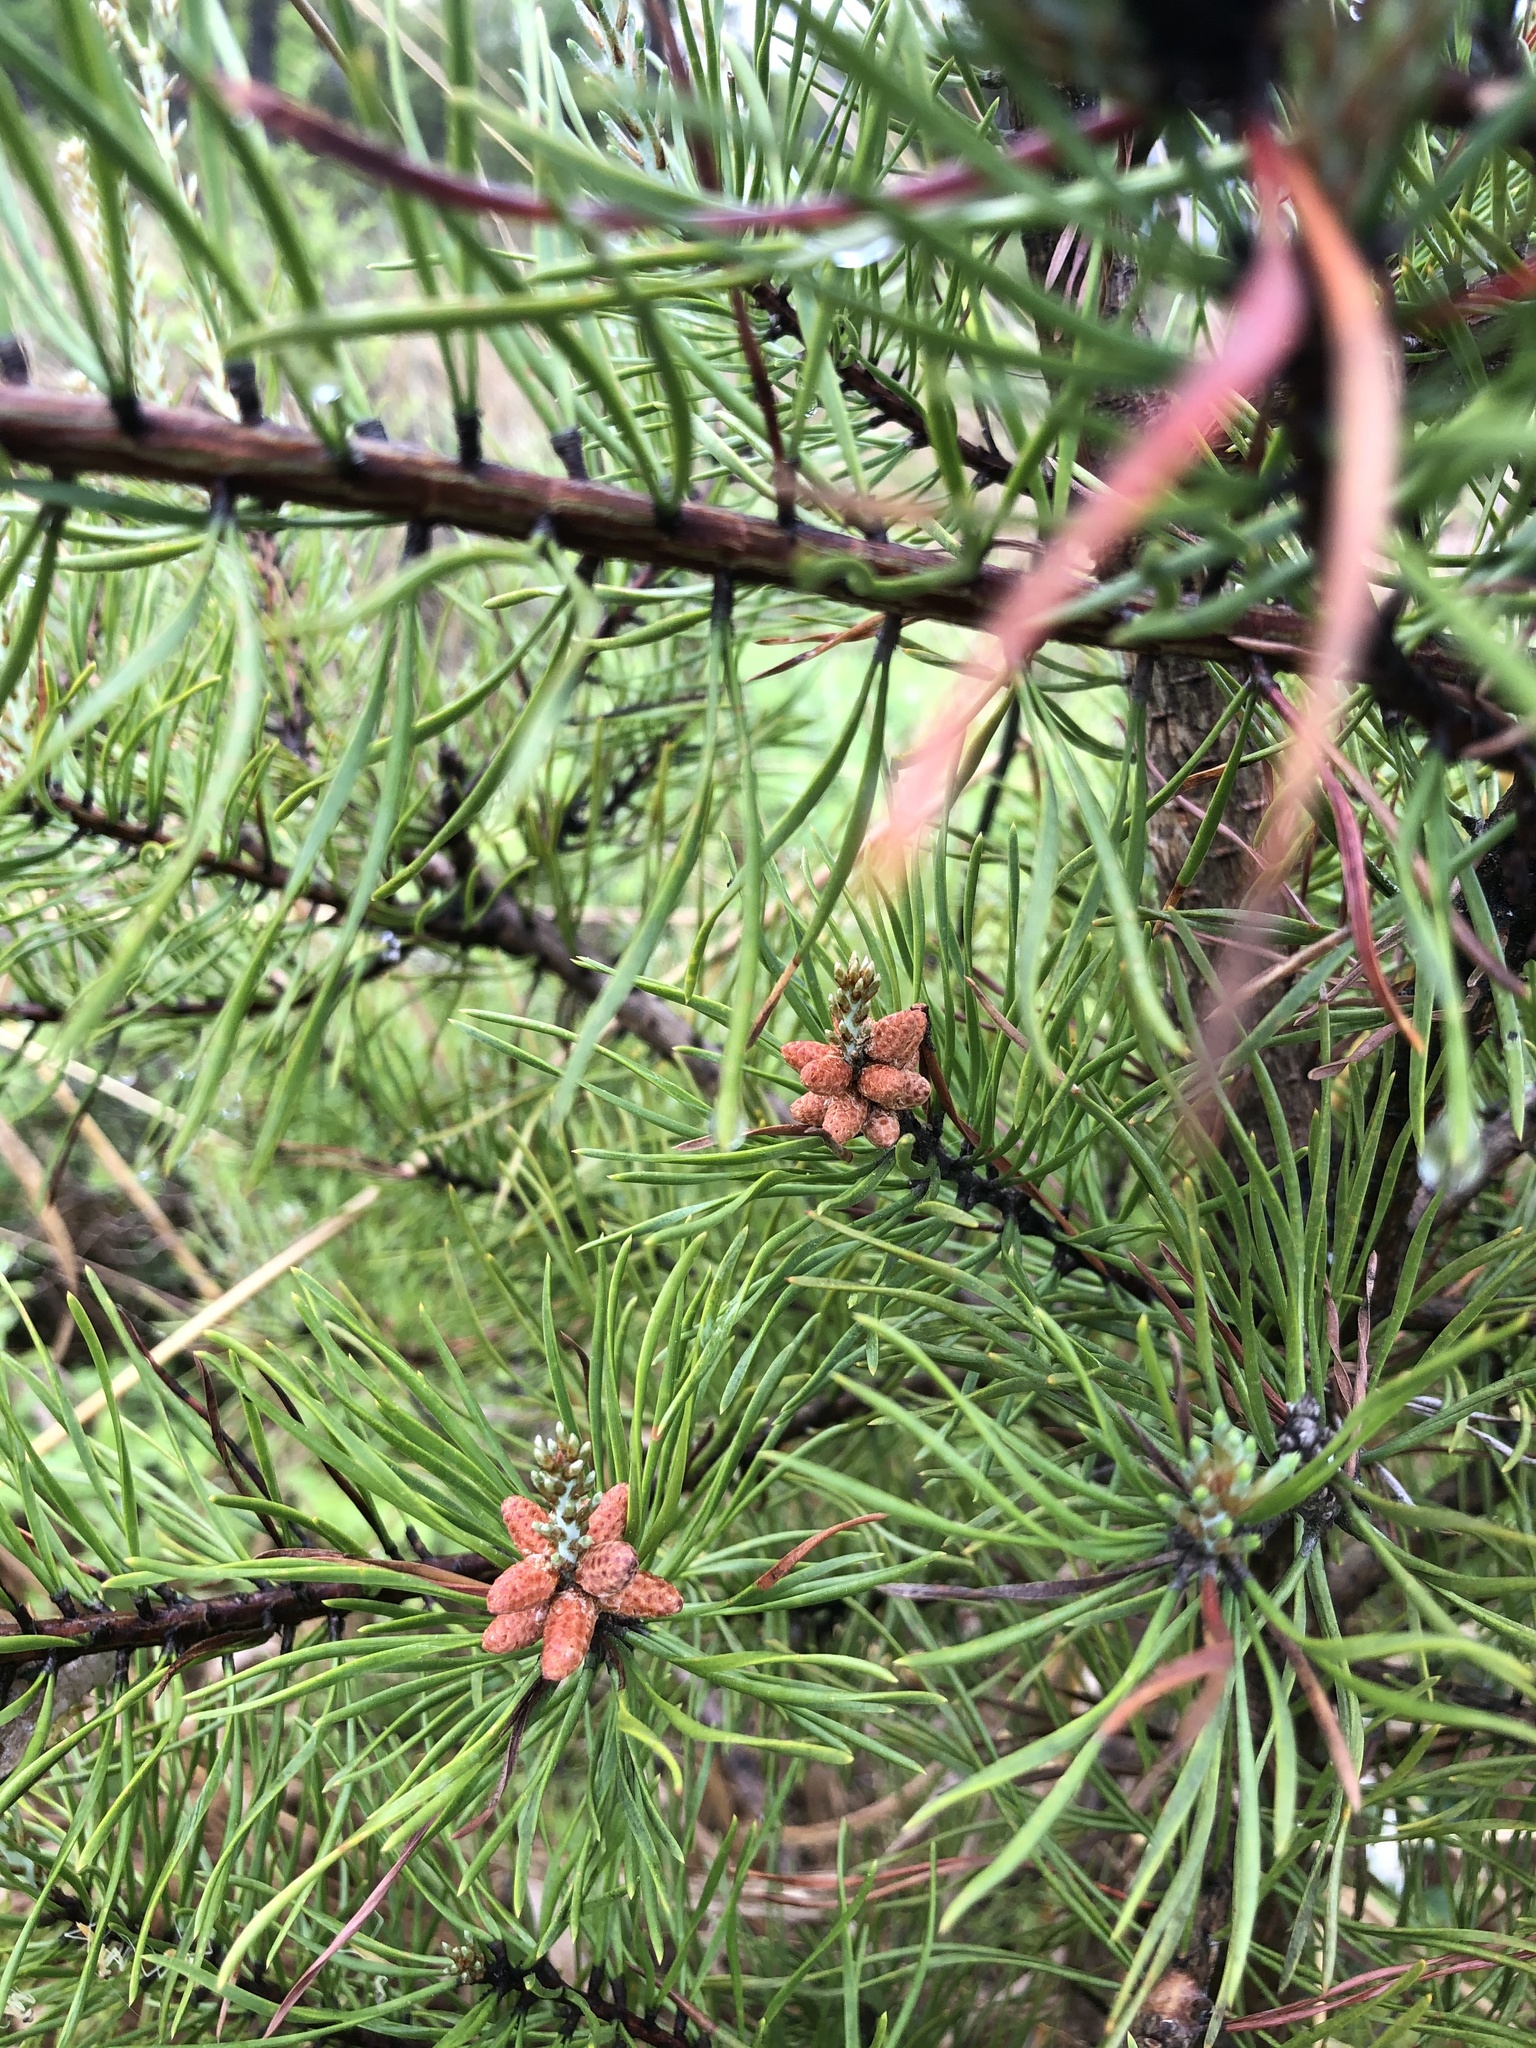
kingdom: Plantae
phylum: Tracheophyta
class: Pinopsida
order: Pinales
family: Pinaceae
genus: Pinus
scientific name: Pinus virginiana
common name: Scrub pine
